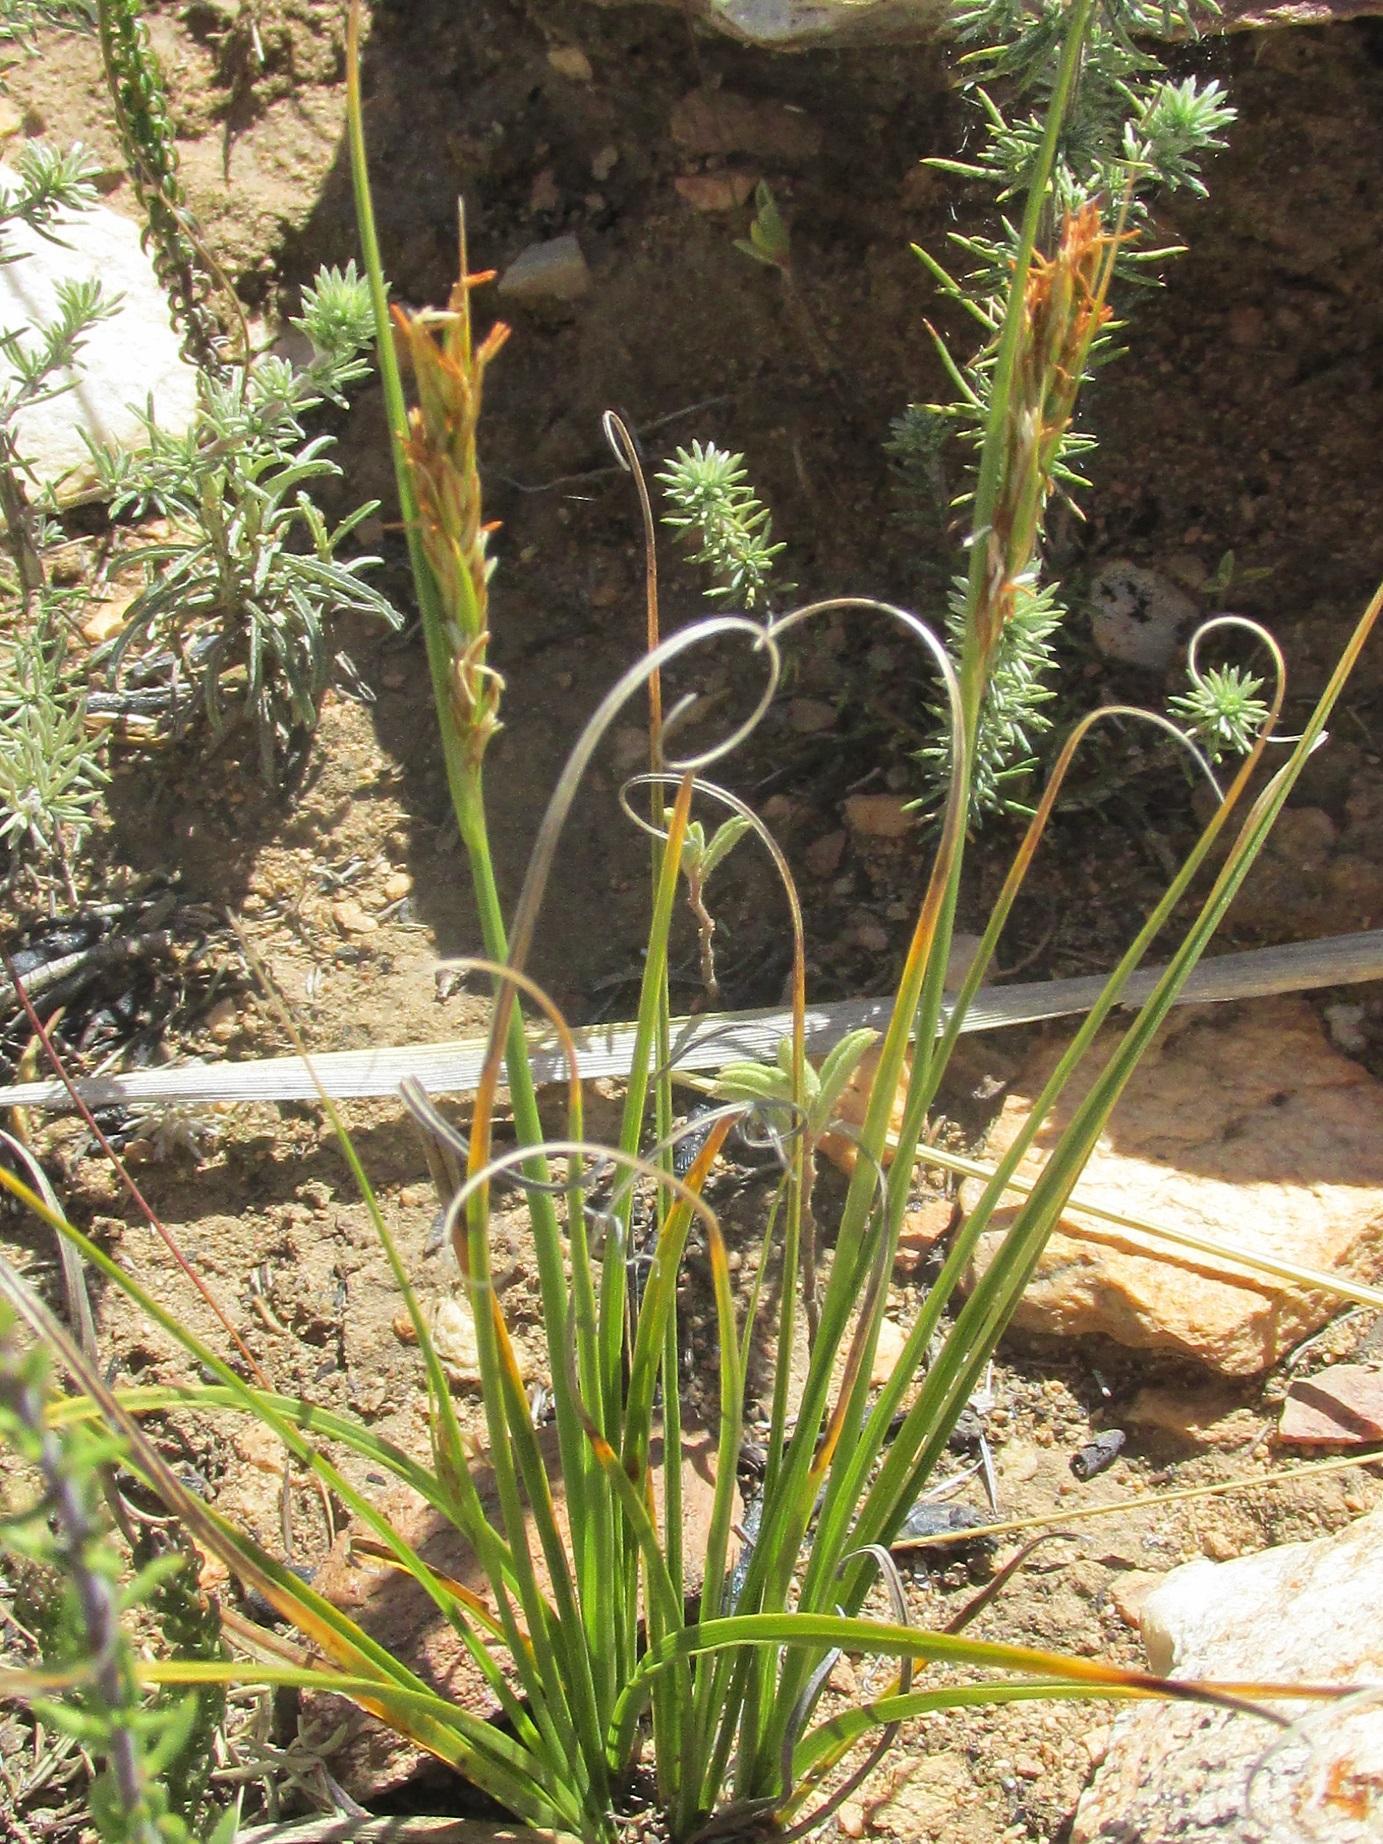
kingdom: Plantae
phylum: Tracheophyta
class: Liliopsida
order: Poales
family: Cyperaceae
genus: Carex
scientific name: Carex capensis
